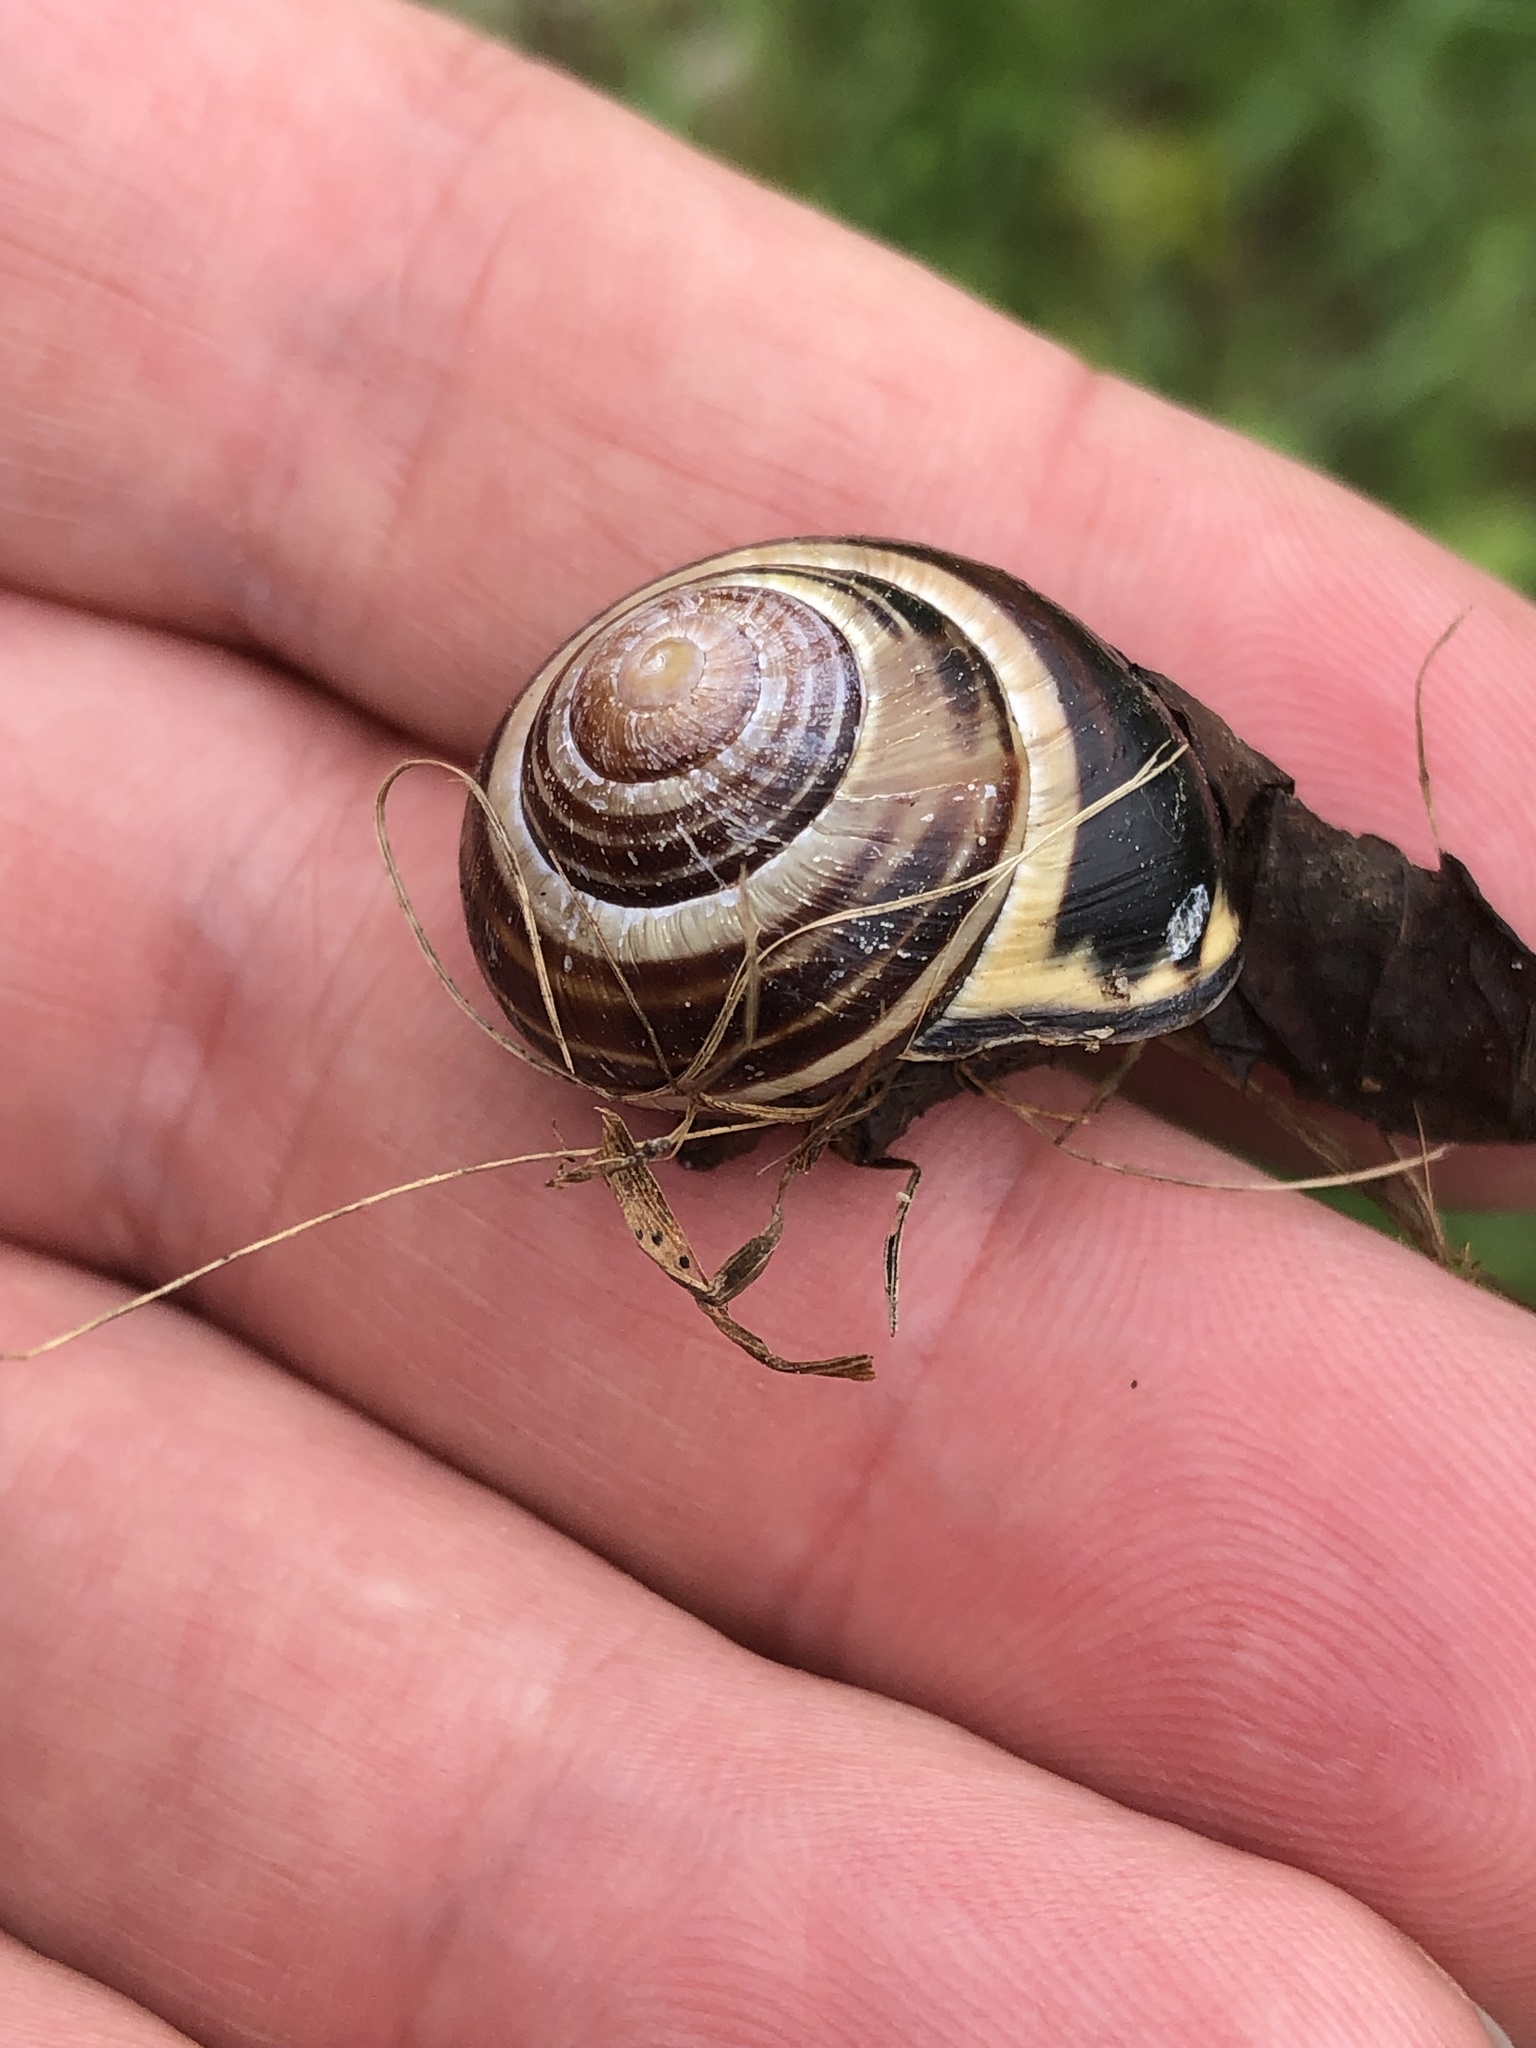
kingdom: Animalia
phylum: Mollusca
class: Gastropoda
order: Stylommatophora
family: Helicidae
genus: Cepaea
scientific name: Cepaea nemoralis
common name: Grovesnail
